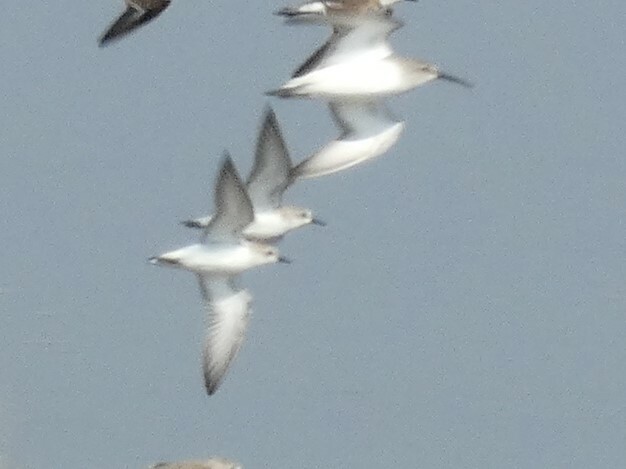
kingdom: Animalia
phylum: Chordata
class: Aves
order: Charadriiformes
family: Scolopacidae
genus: Calidris
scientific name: Calidris ruficollis
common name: Red-necked stint
